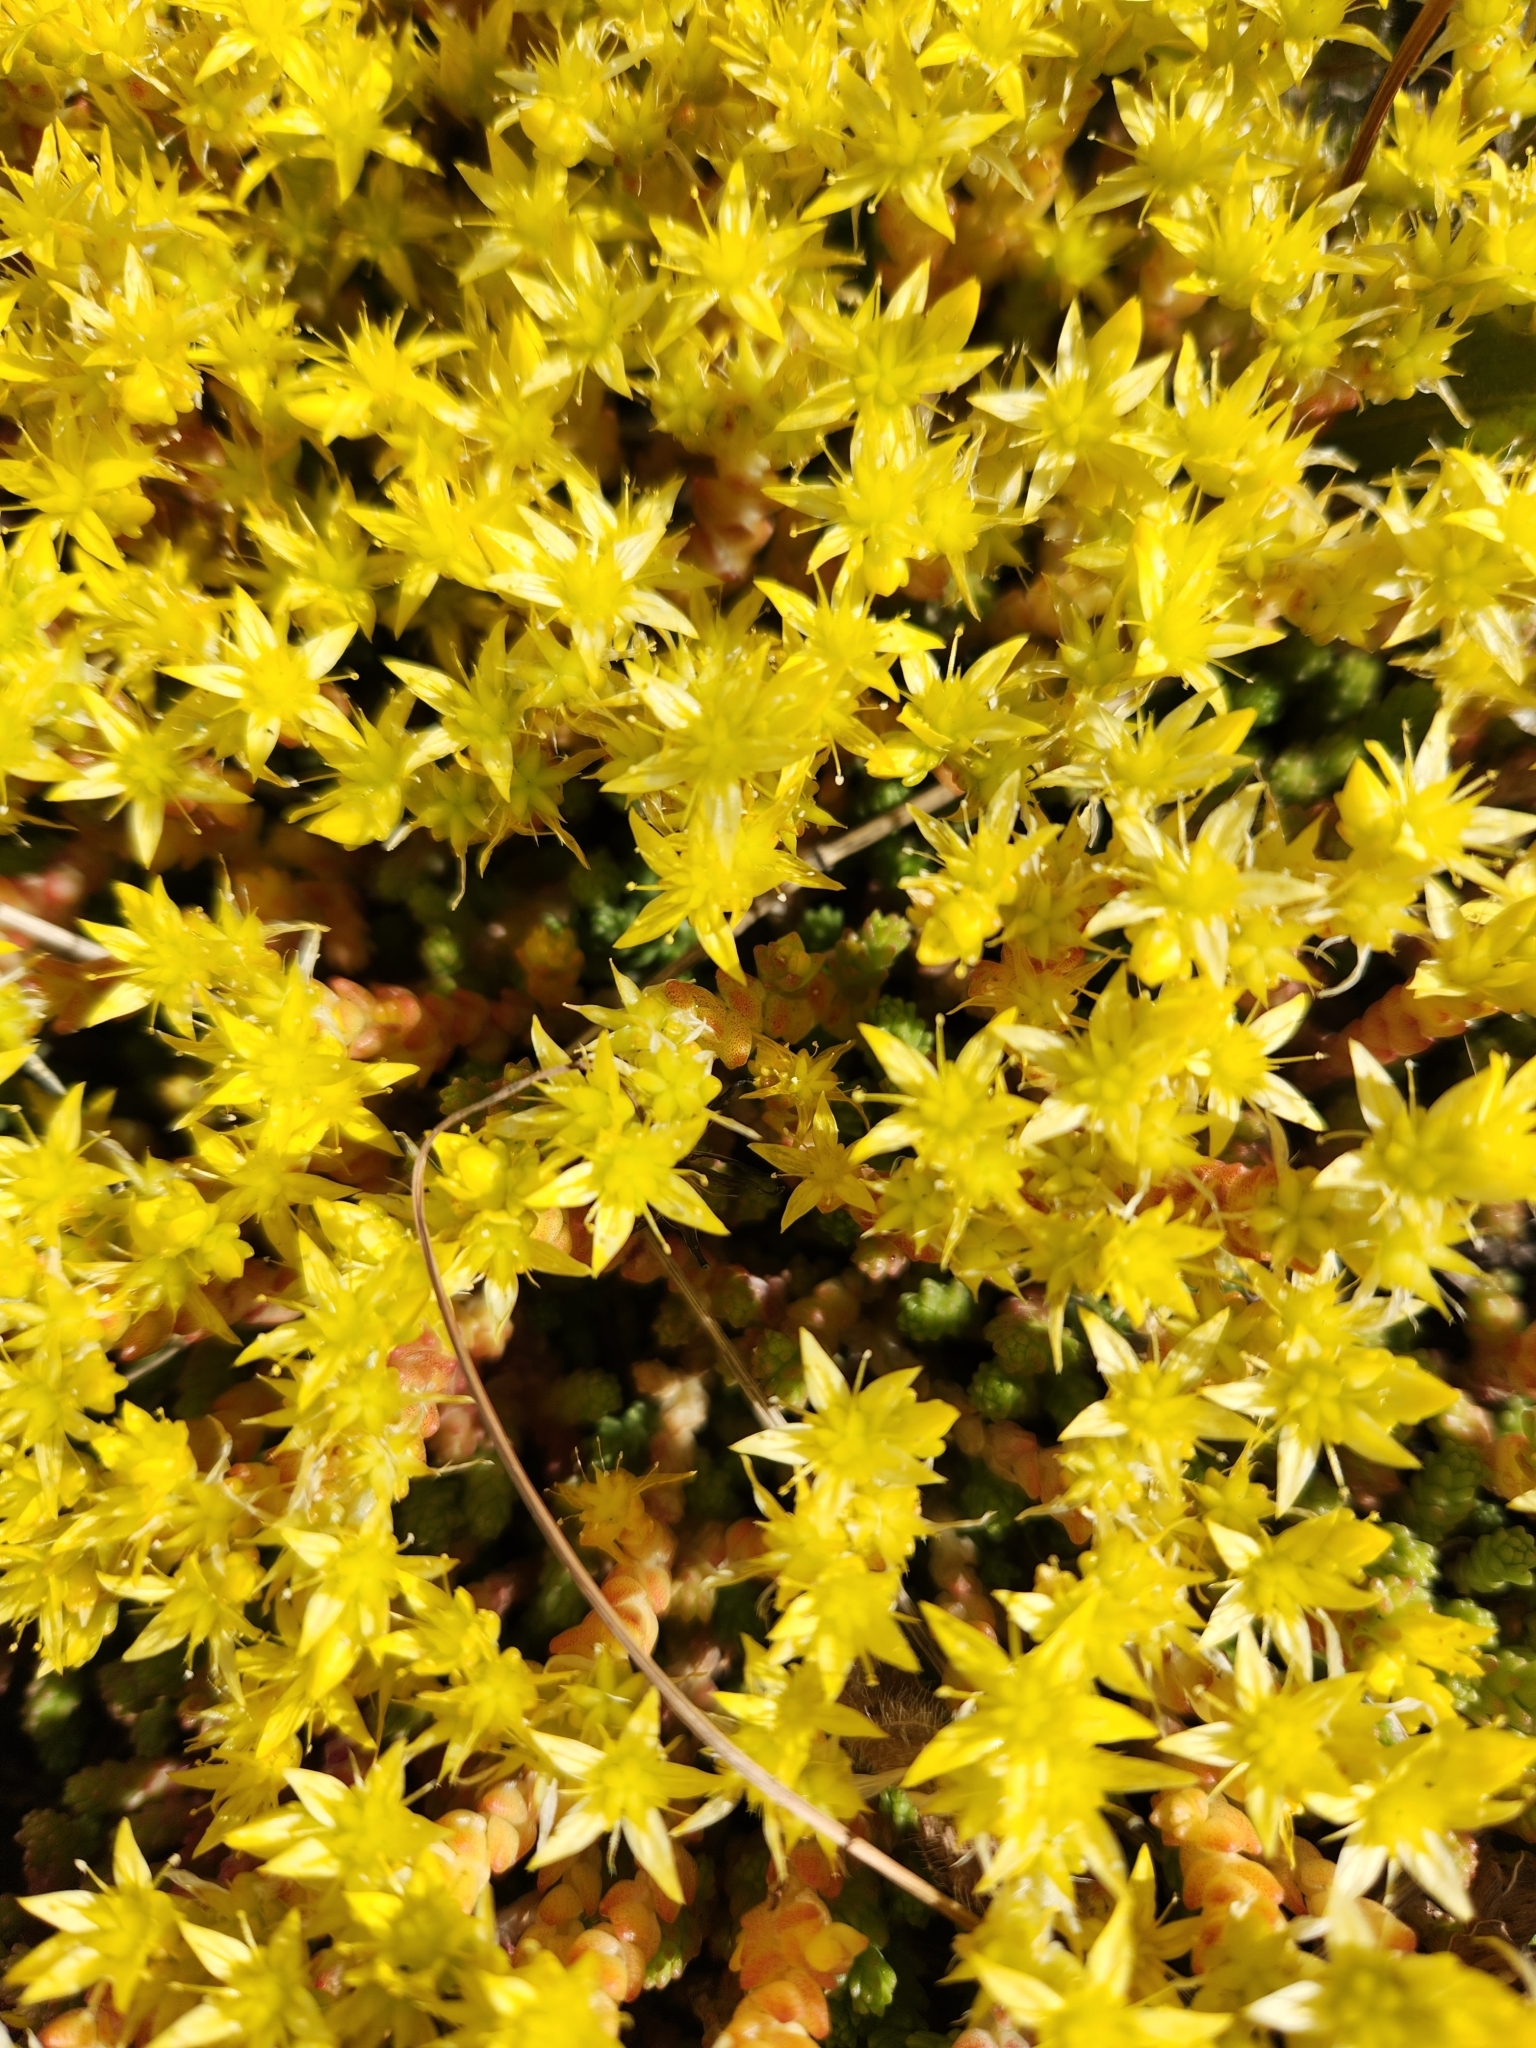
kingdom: Plantae
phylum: Tracheophyta
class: Magnoliopsida
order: Saxifragales
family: Crassulaceae
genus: Sedum
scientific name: Sedum acre
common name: Biting stonecrop
